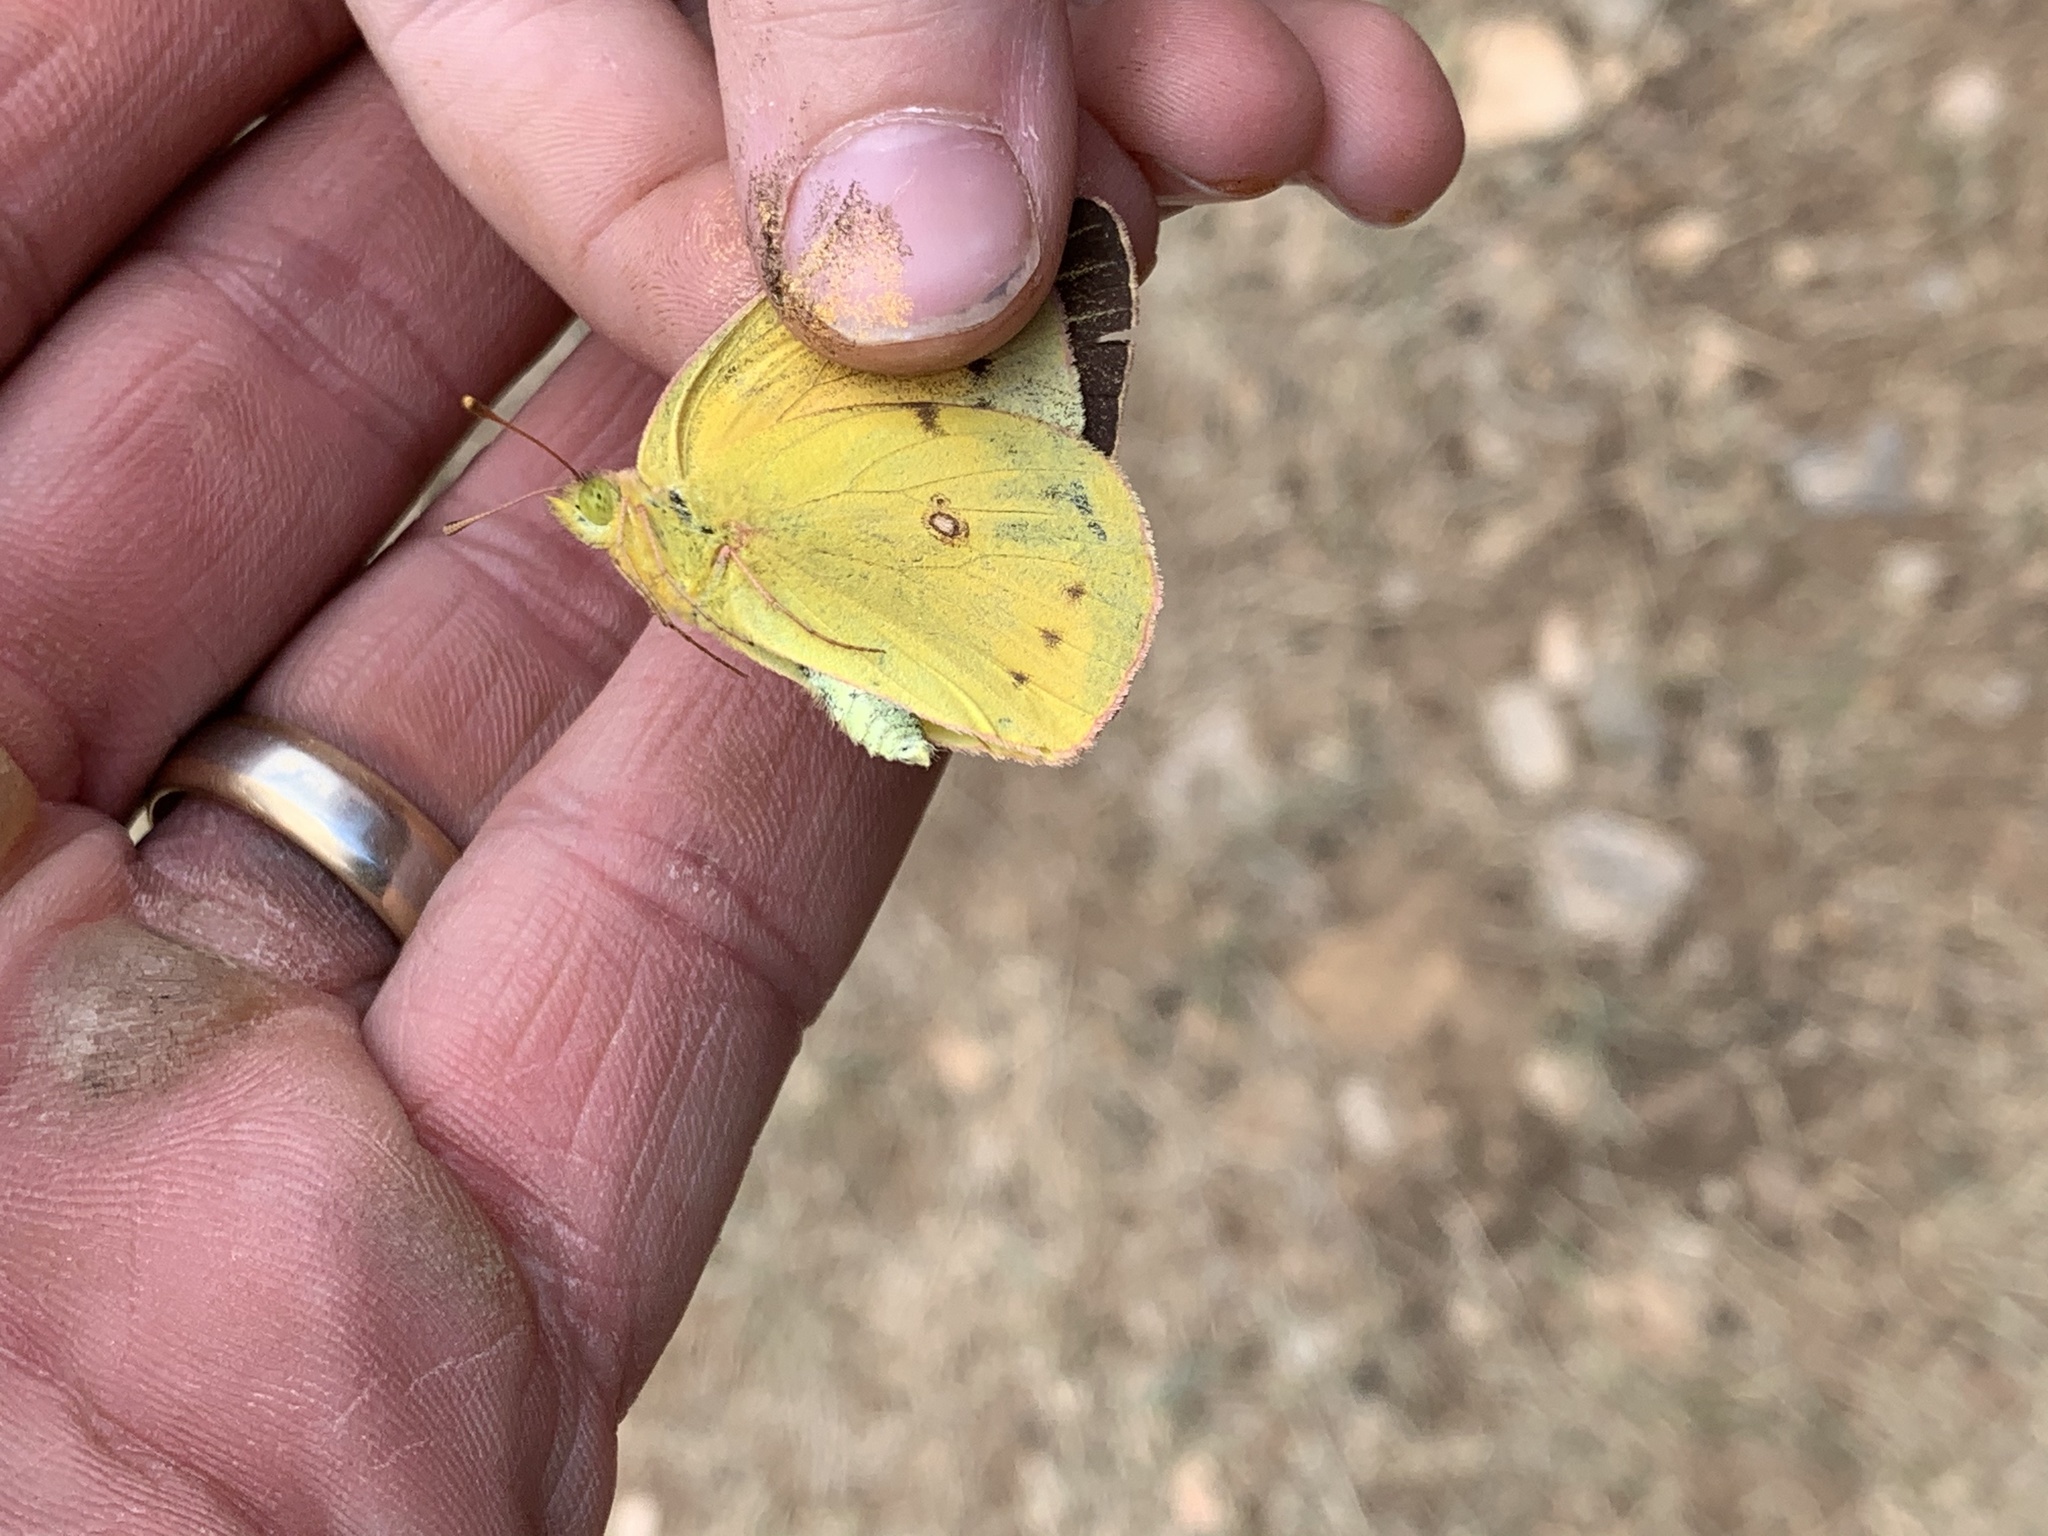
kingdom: Animalia
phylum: Arthropoda
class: Insecta
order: Lepidoptera
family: Pieridae
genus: Colias
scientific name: Colias eurytheme
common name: Alfalfa butterfly
